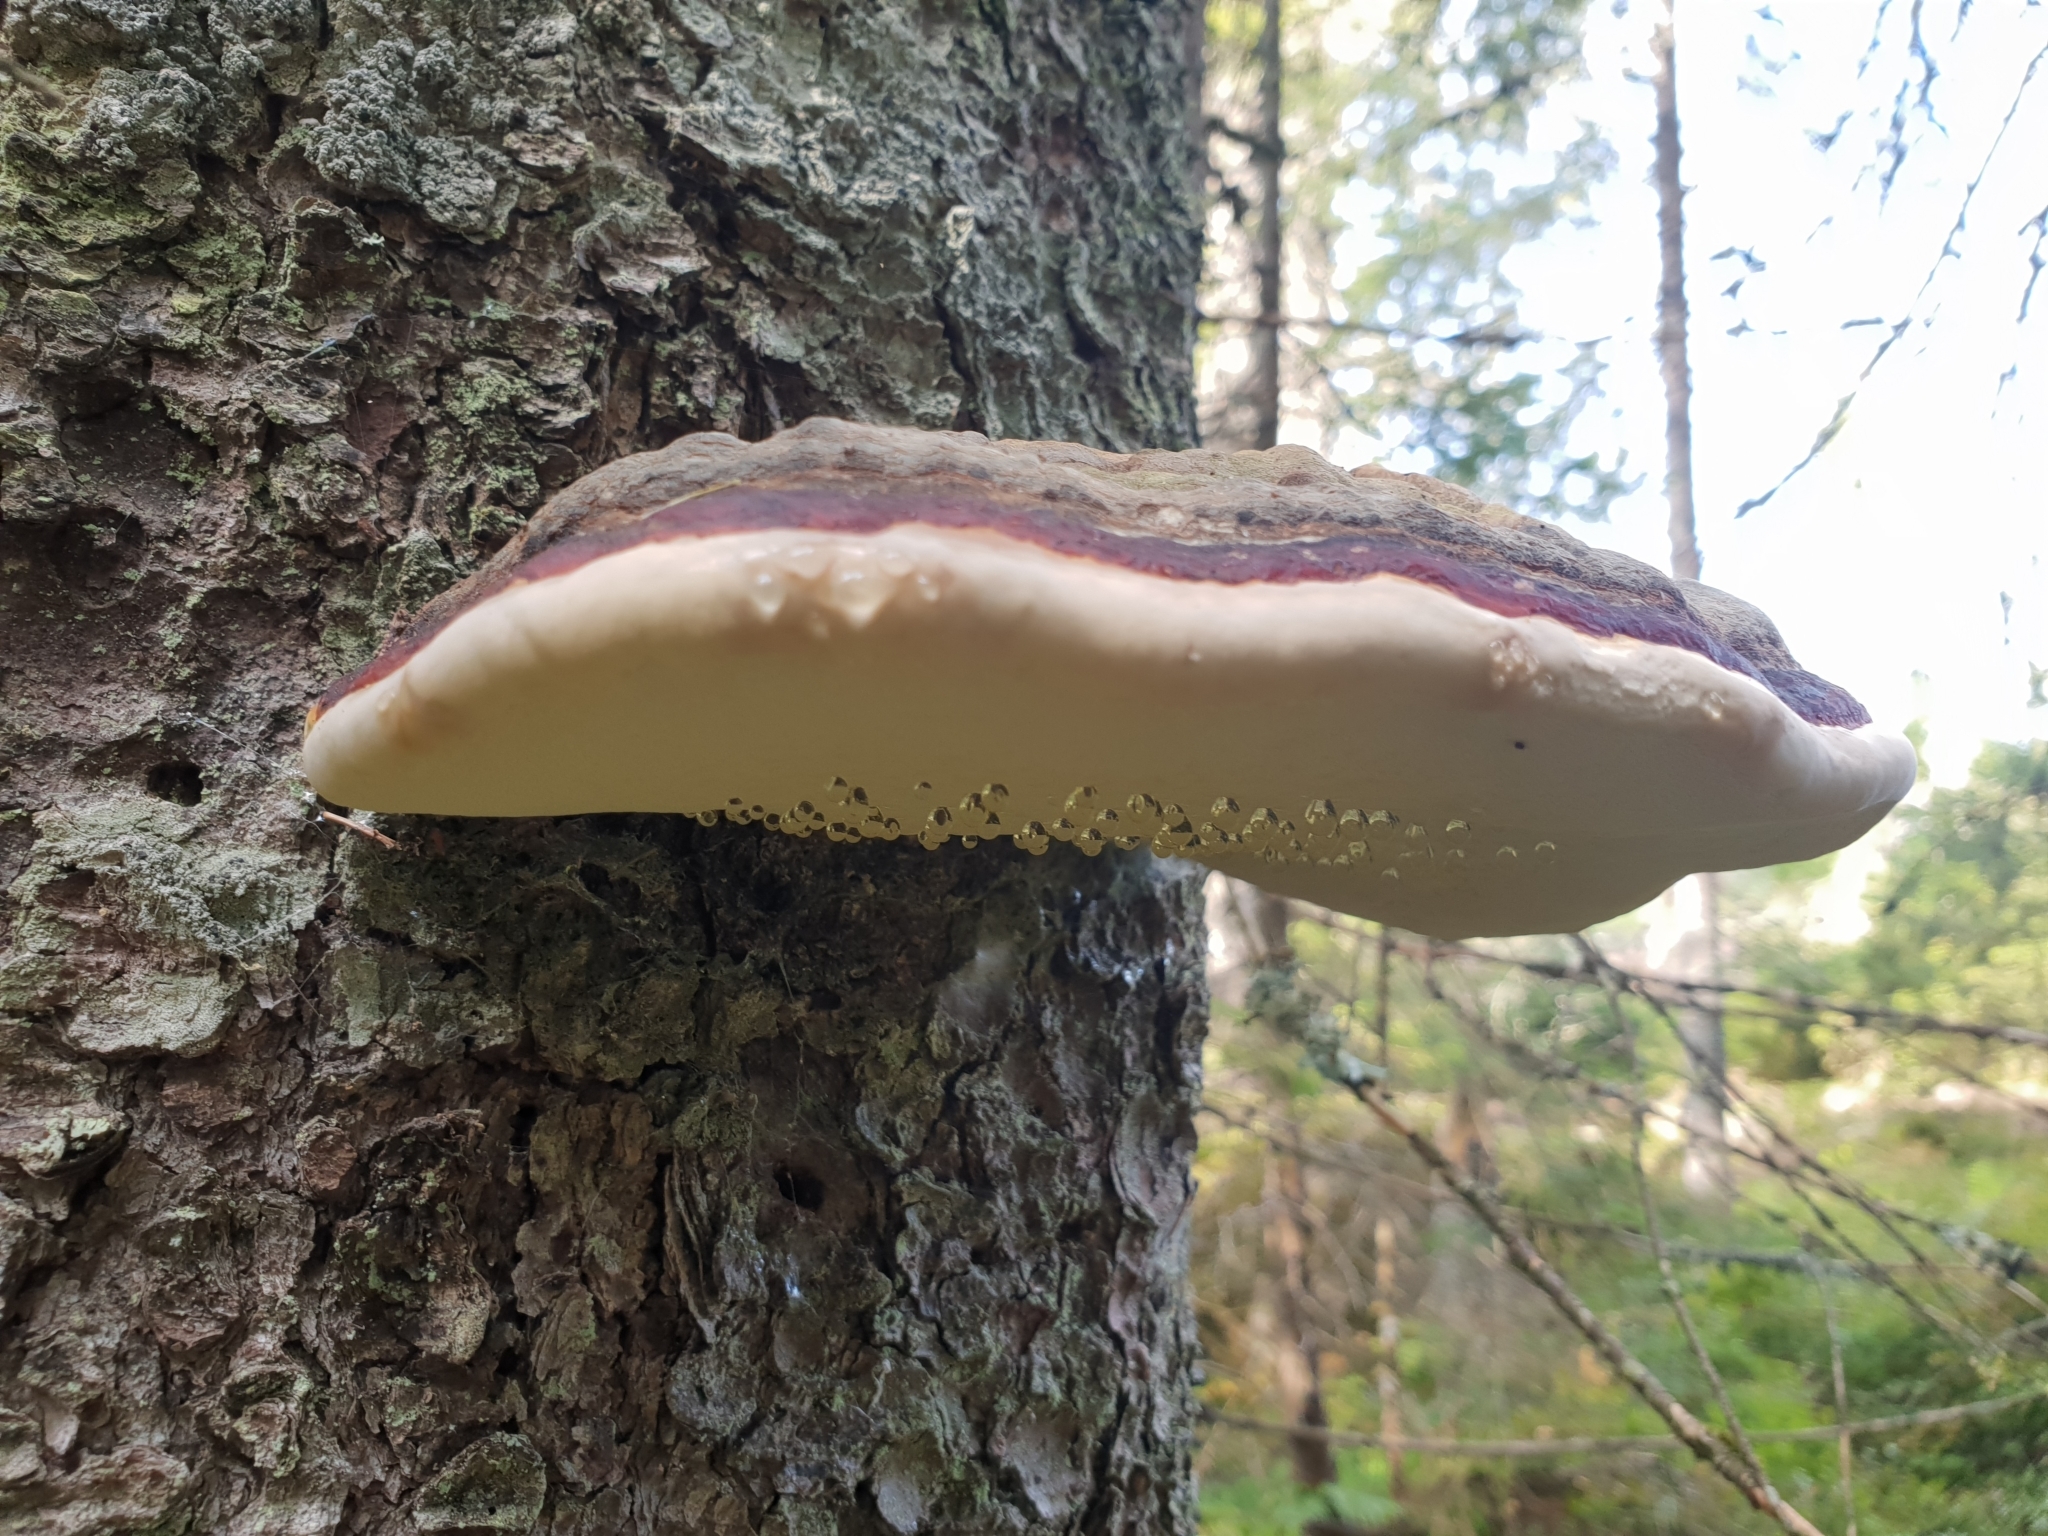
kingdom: Fungi
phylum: Basidiomycota
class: Agaricomycetes
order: Polyporales
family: Fomitopsidaceae
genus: Fomitopsis
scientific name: Fomitopsis pinicola
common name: Red-belted bracket
